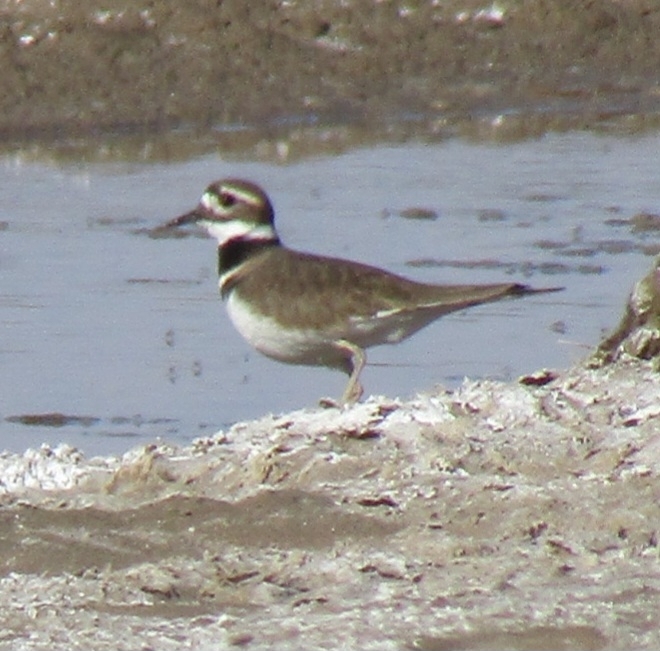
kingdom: Animalia
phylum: Chordata
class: Aves
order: Charadriiformes
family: Charadriidae
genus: Charadrius
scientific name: Charadrius vociferus
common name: Killdeer
